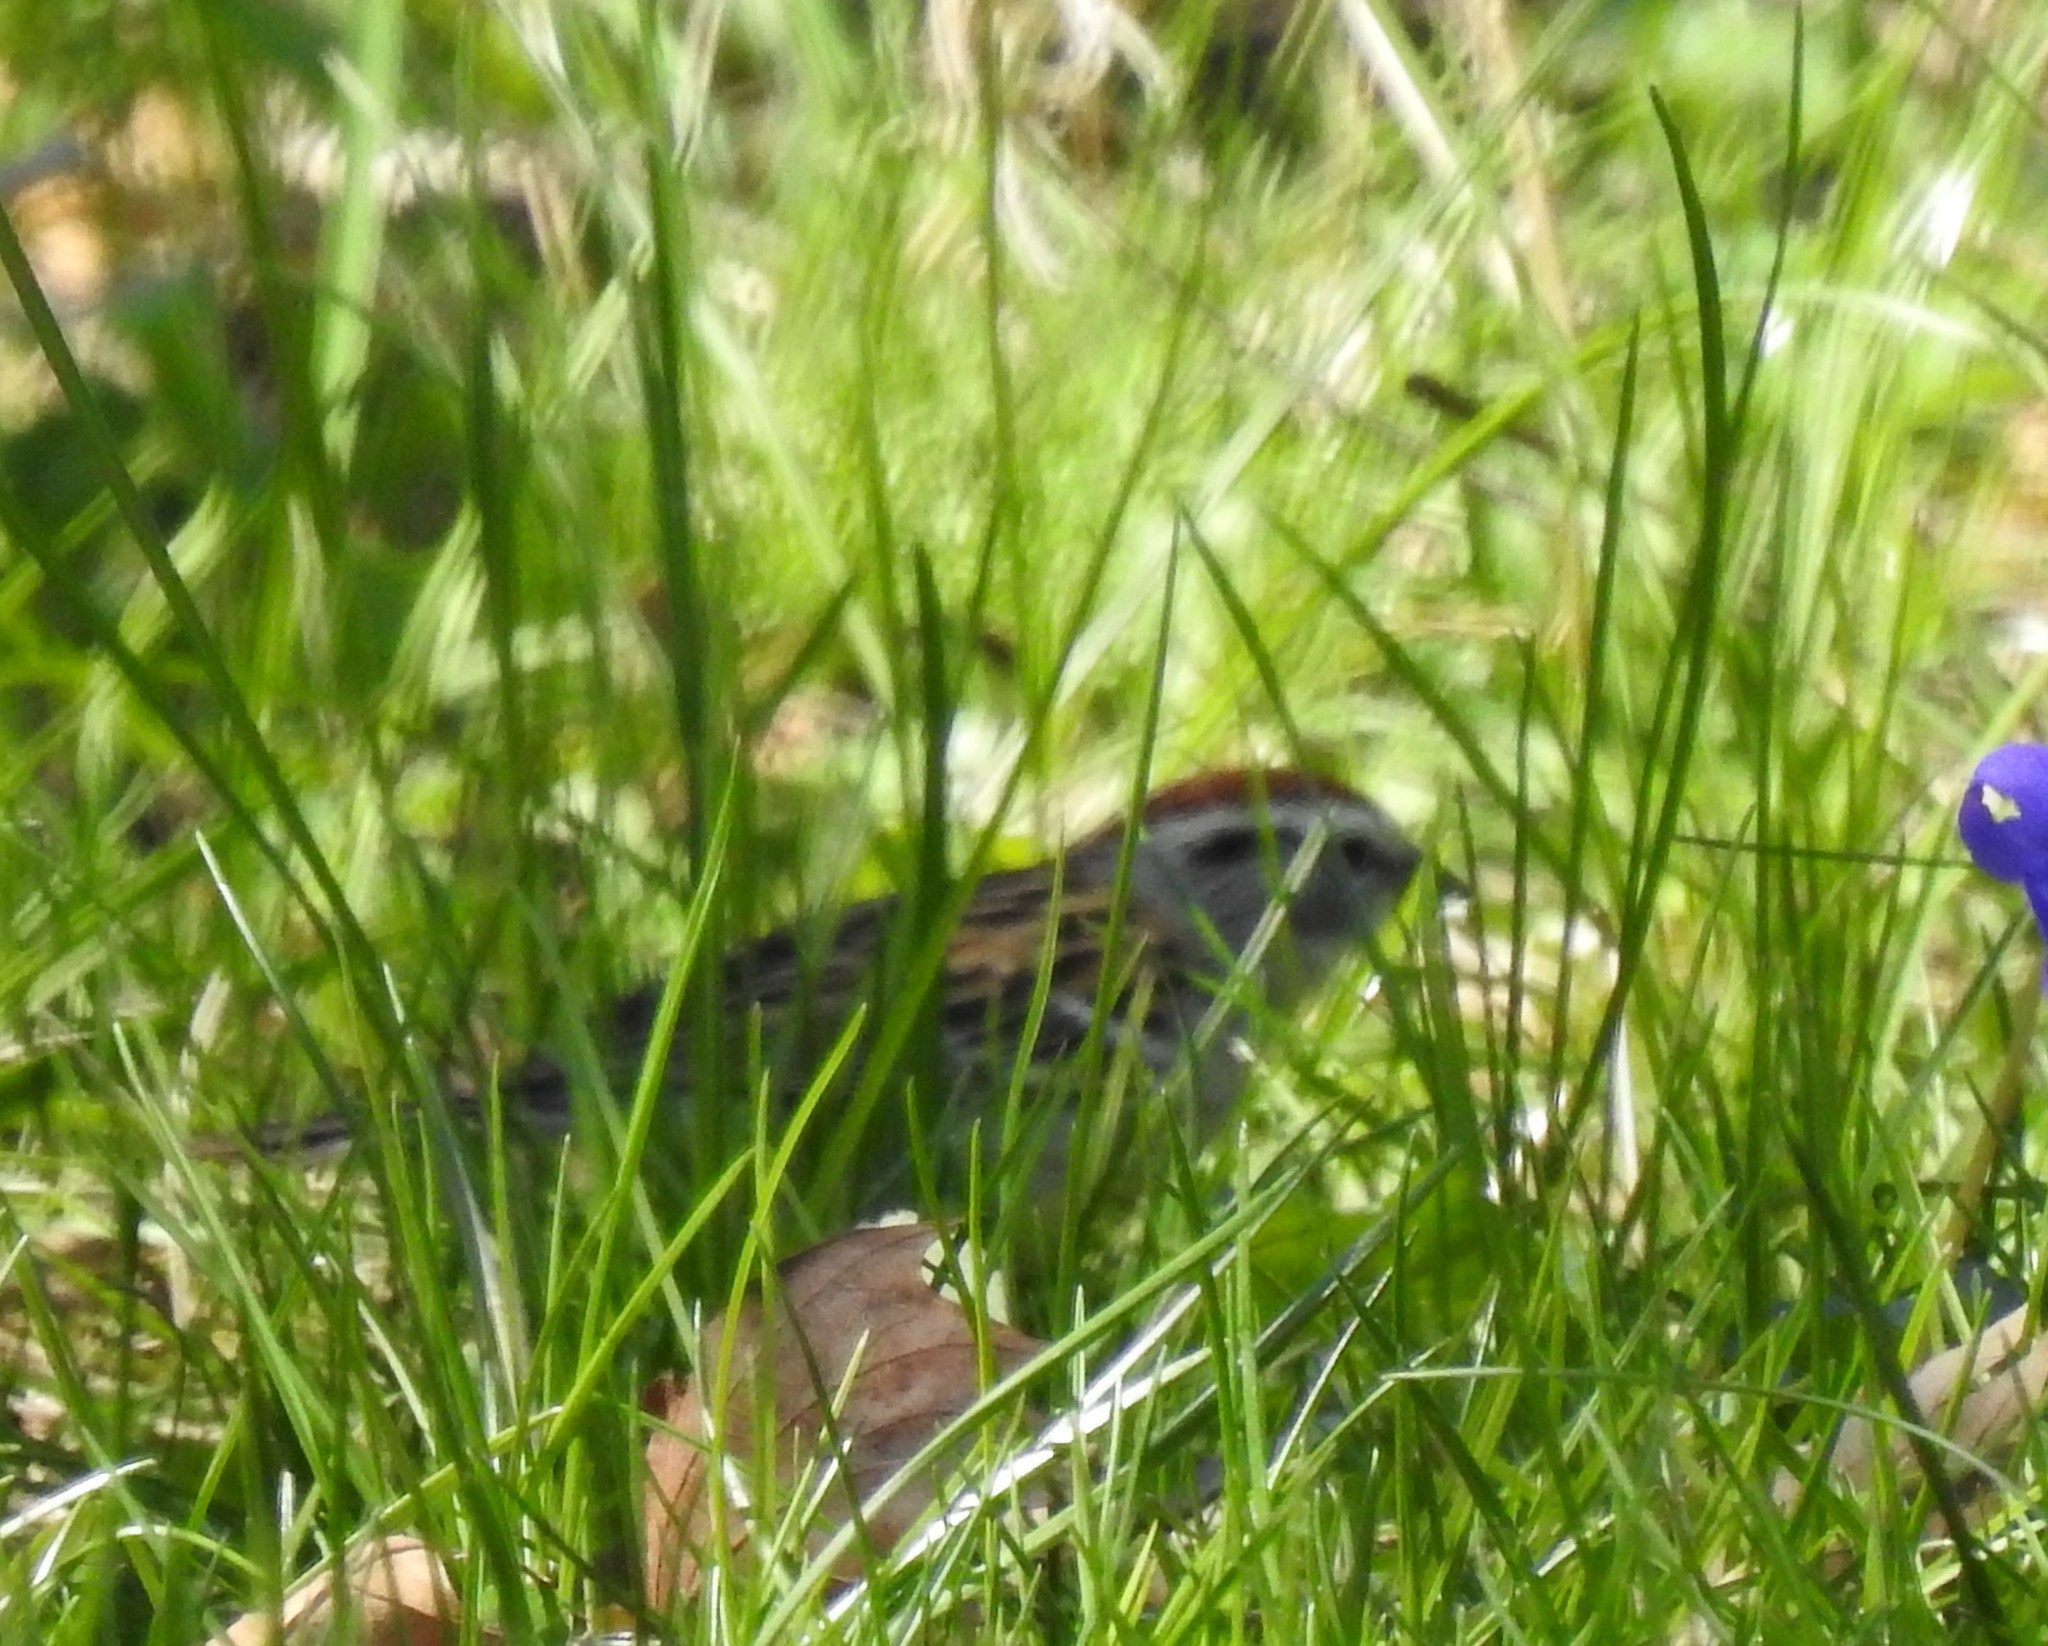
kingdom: Animalia
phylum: Chordata
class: Aves
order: Passeriformes
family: Passerellidae
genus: Spizella
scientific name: Spizella passerina
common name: Chipping sparrow
